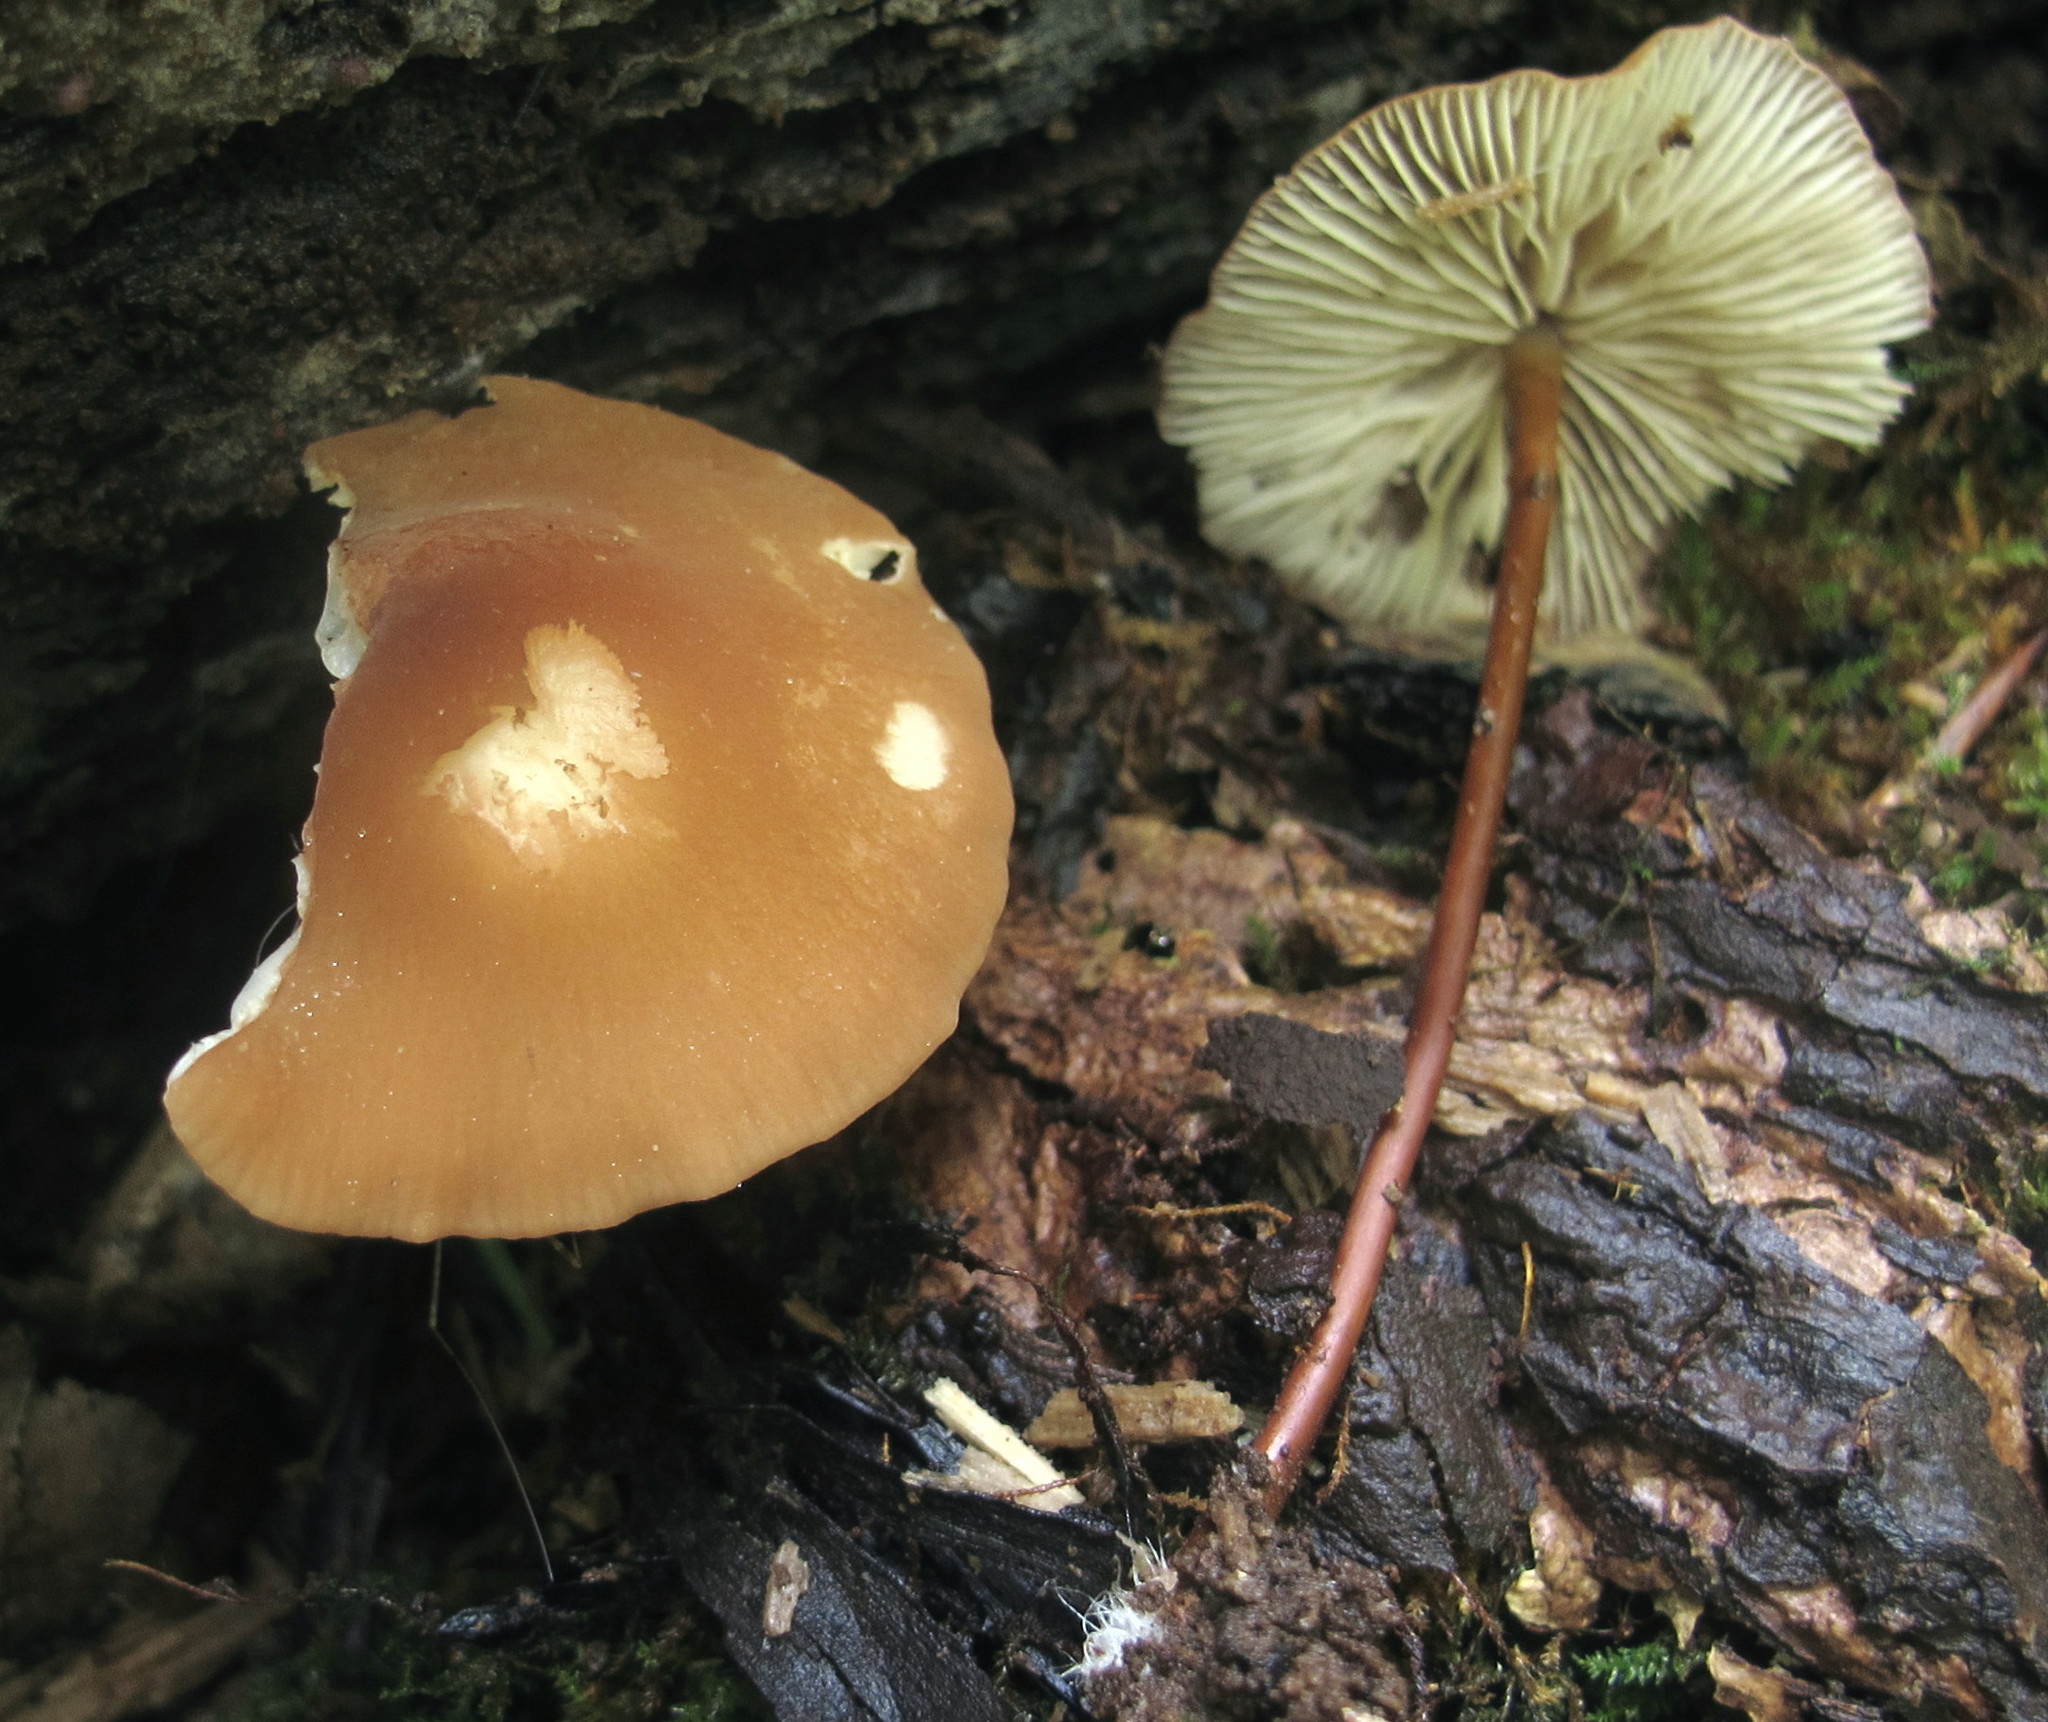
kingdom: Fungi
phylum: Basidiomycota
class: Agaricomycetes
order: Agaricales
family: Marasmiaceae
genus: Marasmius
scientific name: Marasmius siccus
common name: Orange pinwheel
